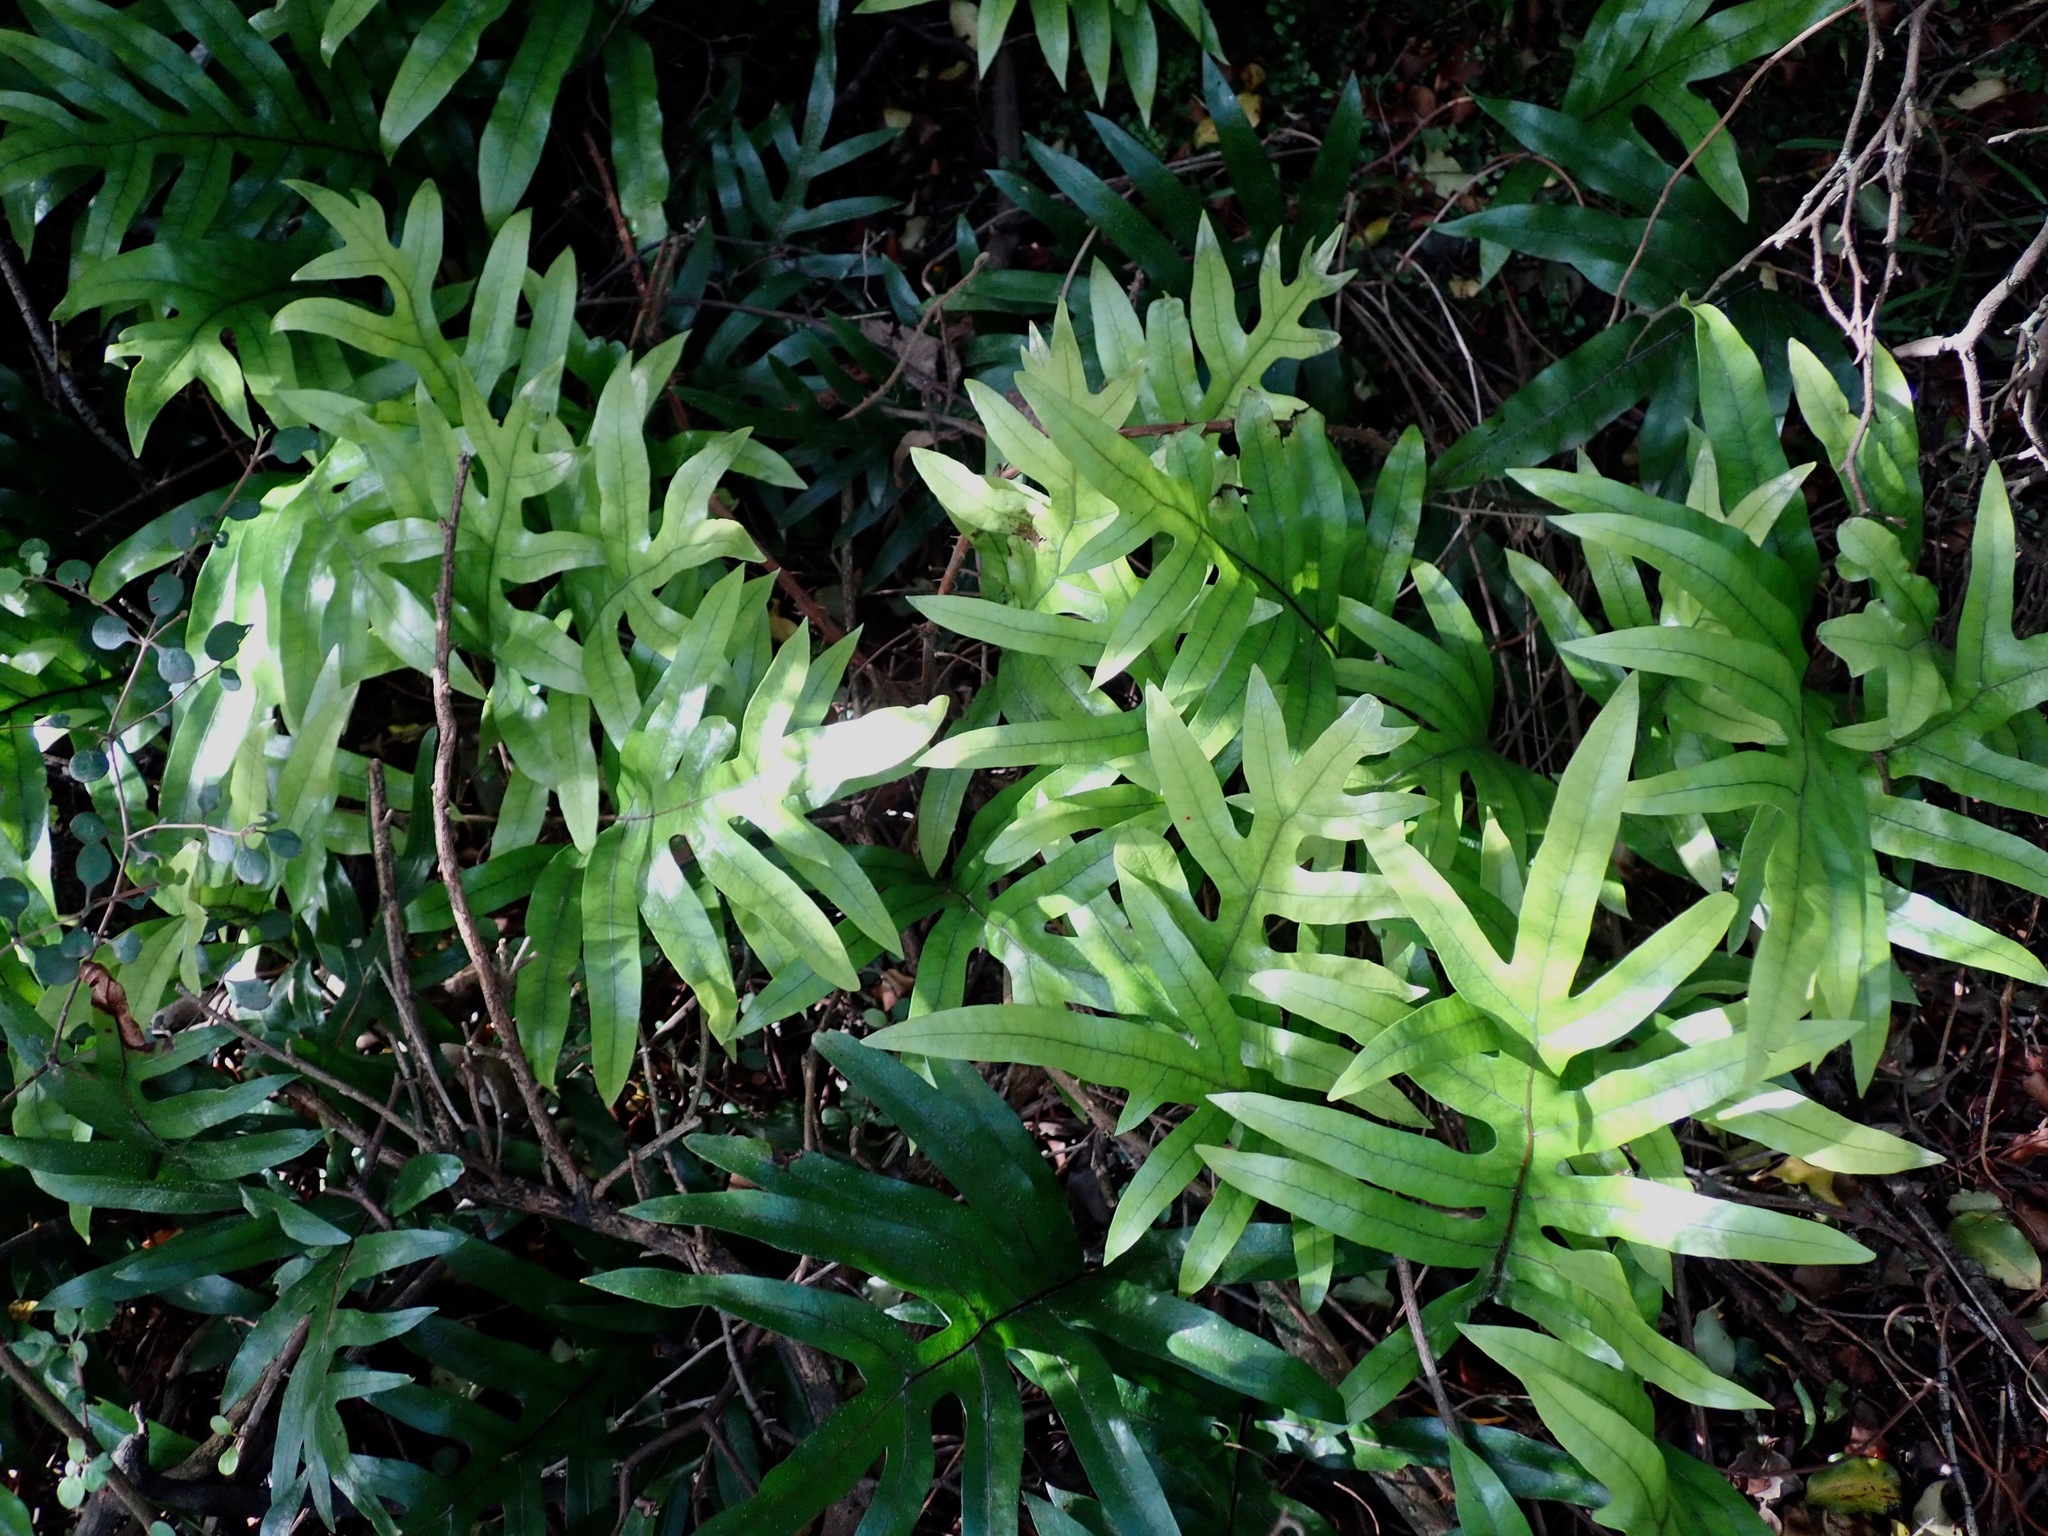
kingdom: Plantae
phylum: Tracheophyta
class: Polypodiopsida
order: Polypodiales
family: Polypodiaceae
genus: Lecanopteris
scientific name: Lecanopteris pustulata
